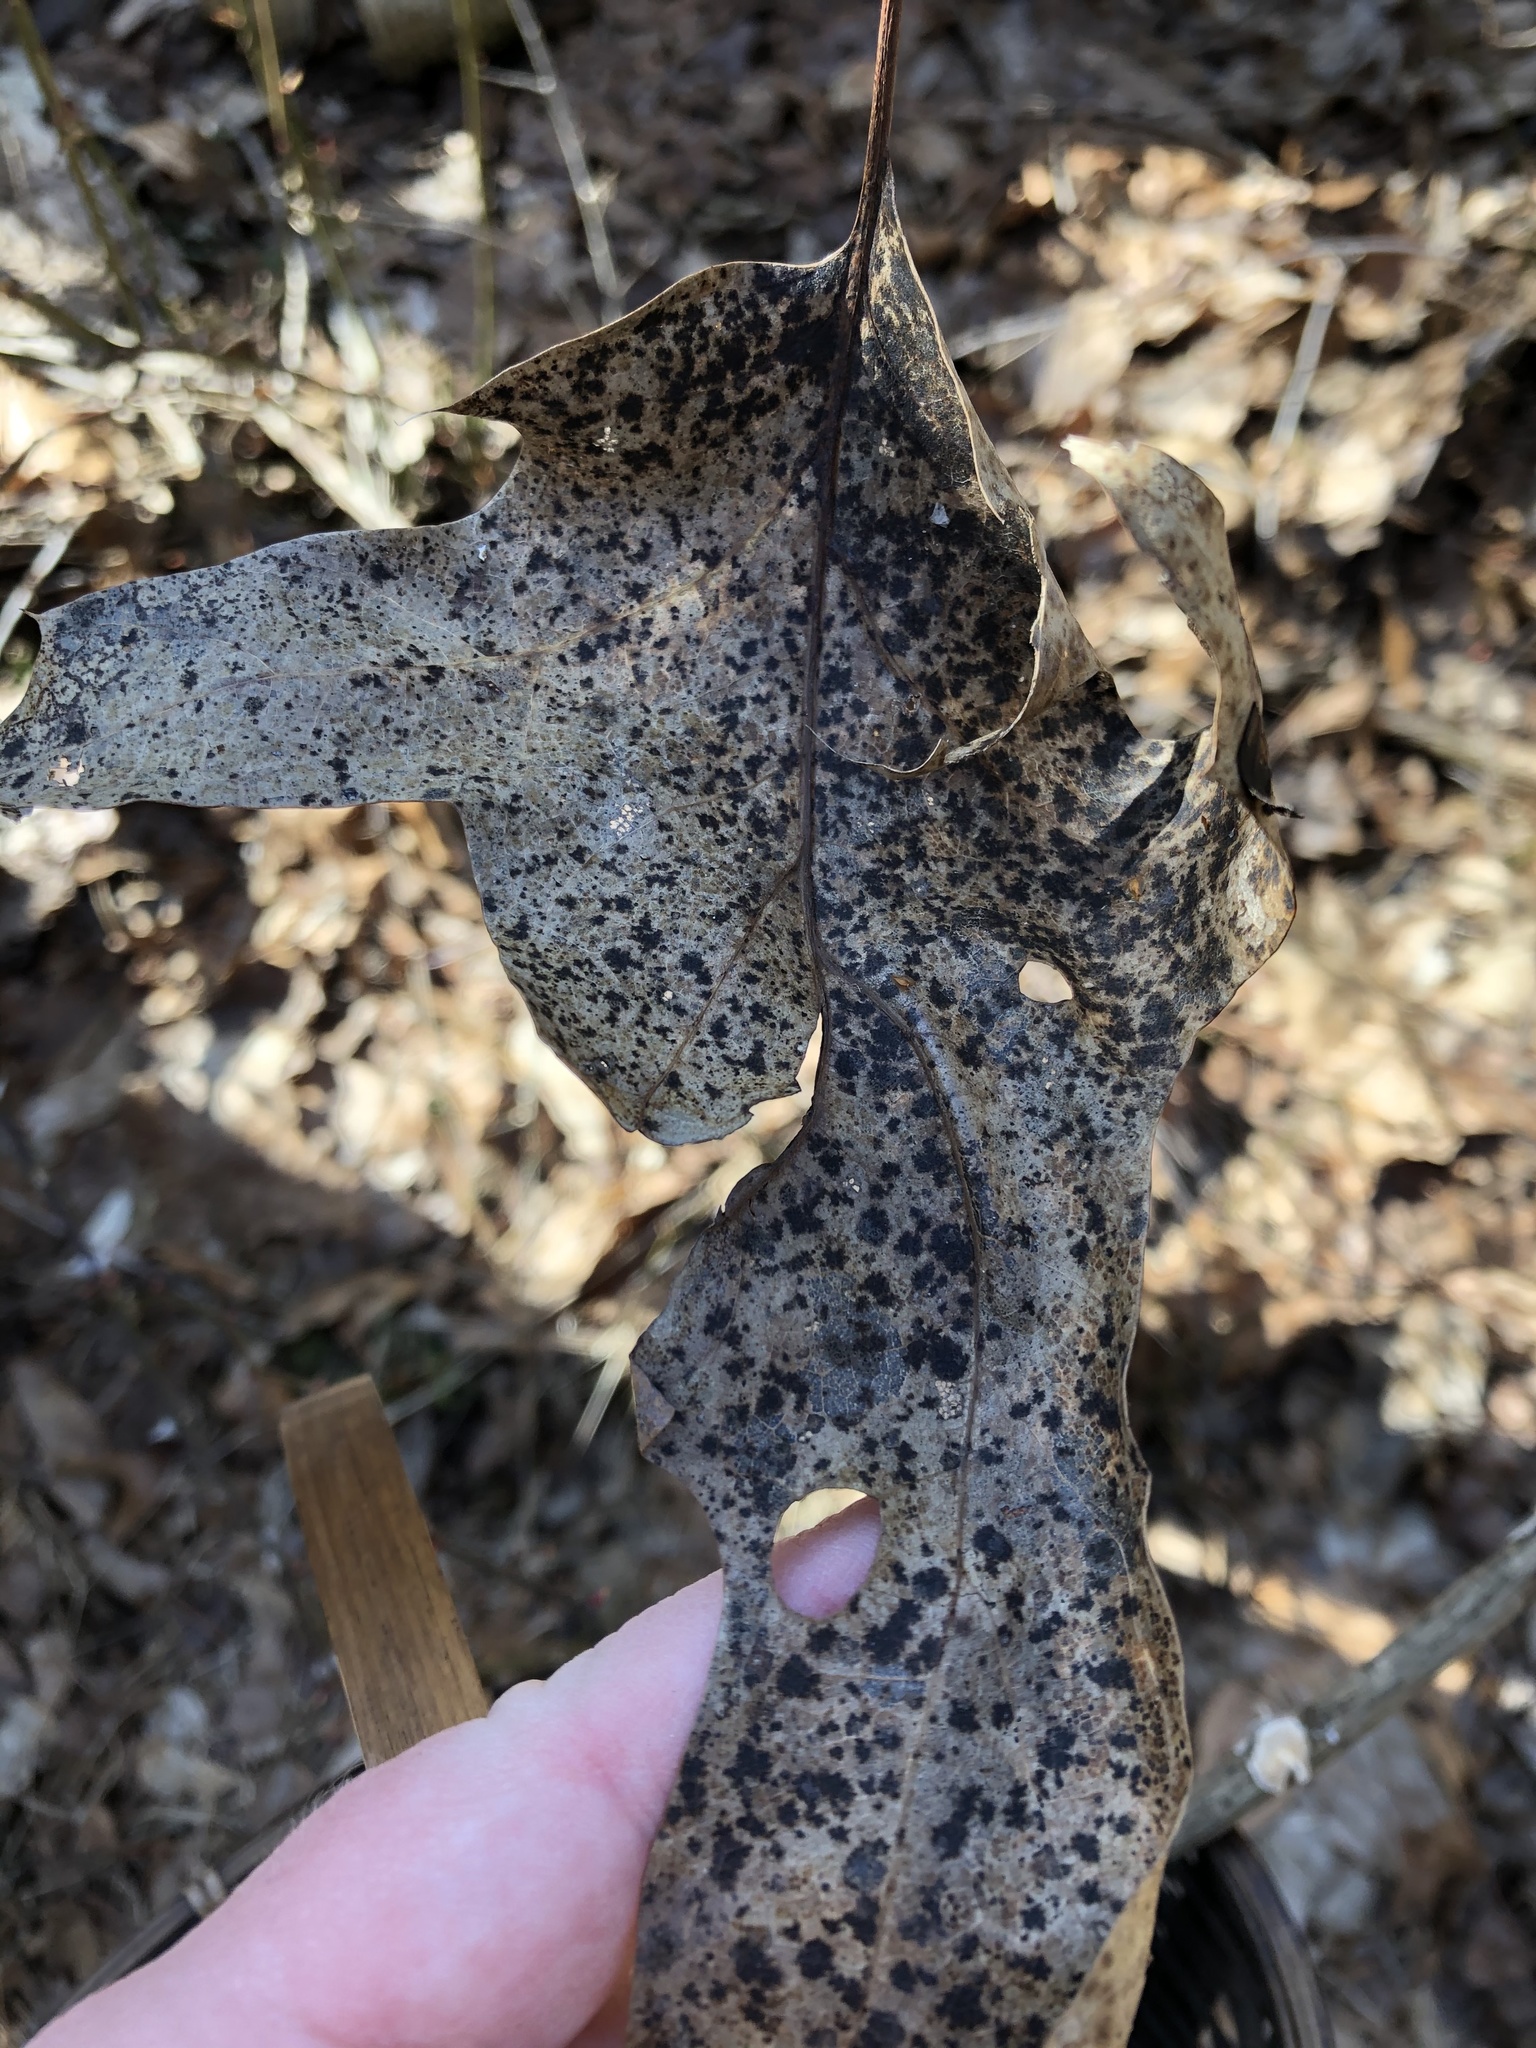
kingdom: Fungi
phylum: Ascomycota
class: Sordariomycetes
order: Diaporthales
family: Melanconidaceae
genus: Dicarpella
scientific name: Dicarpella dryina
